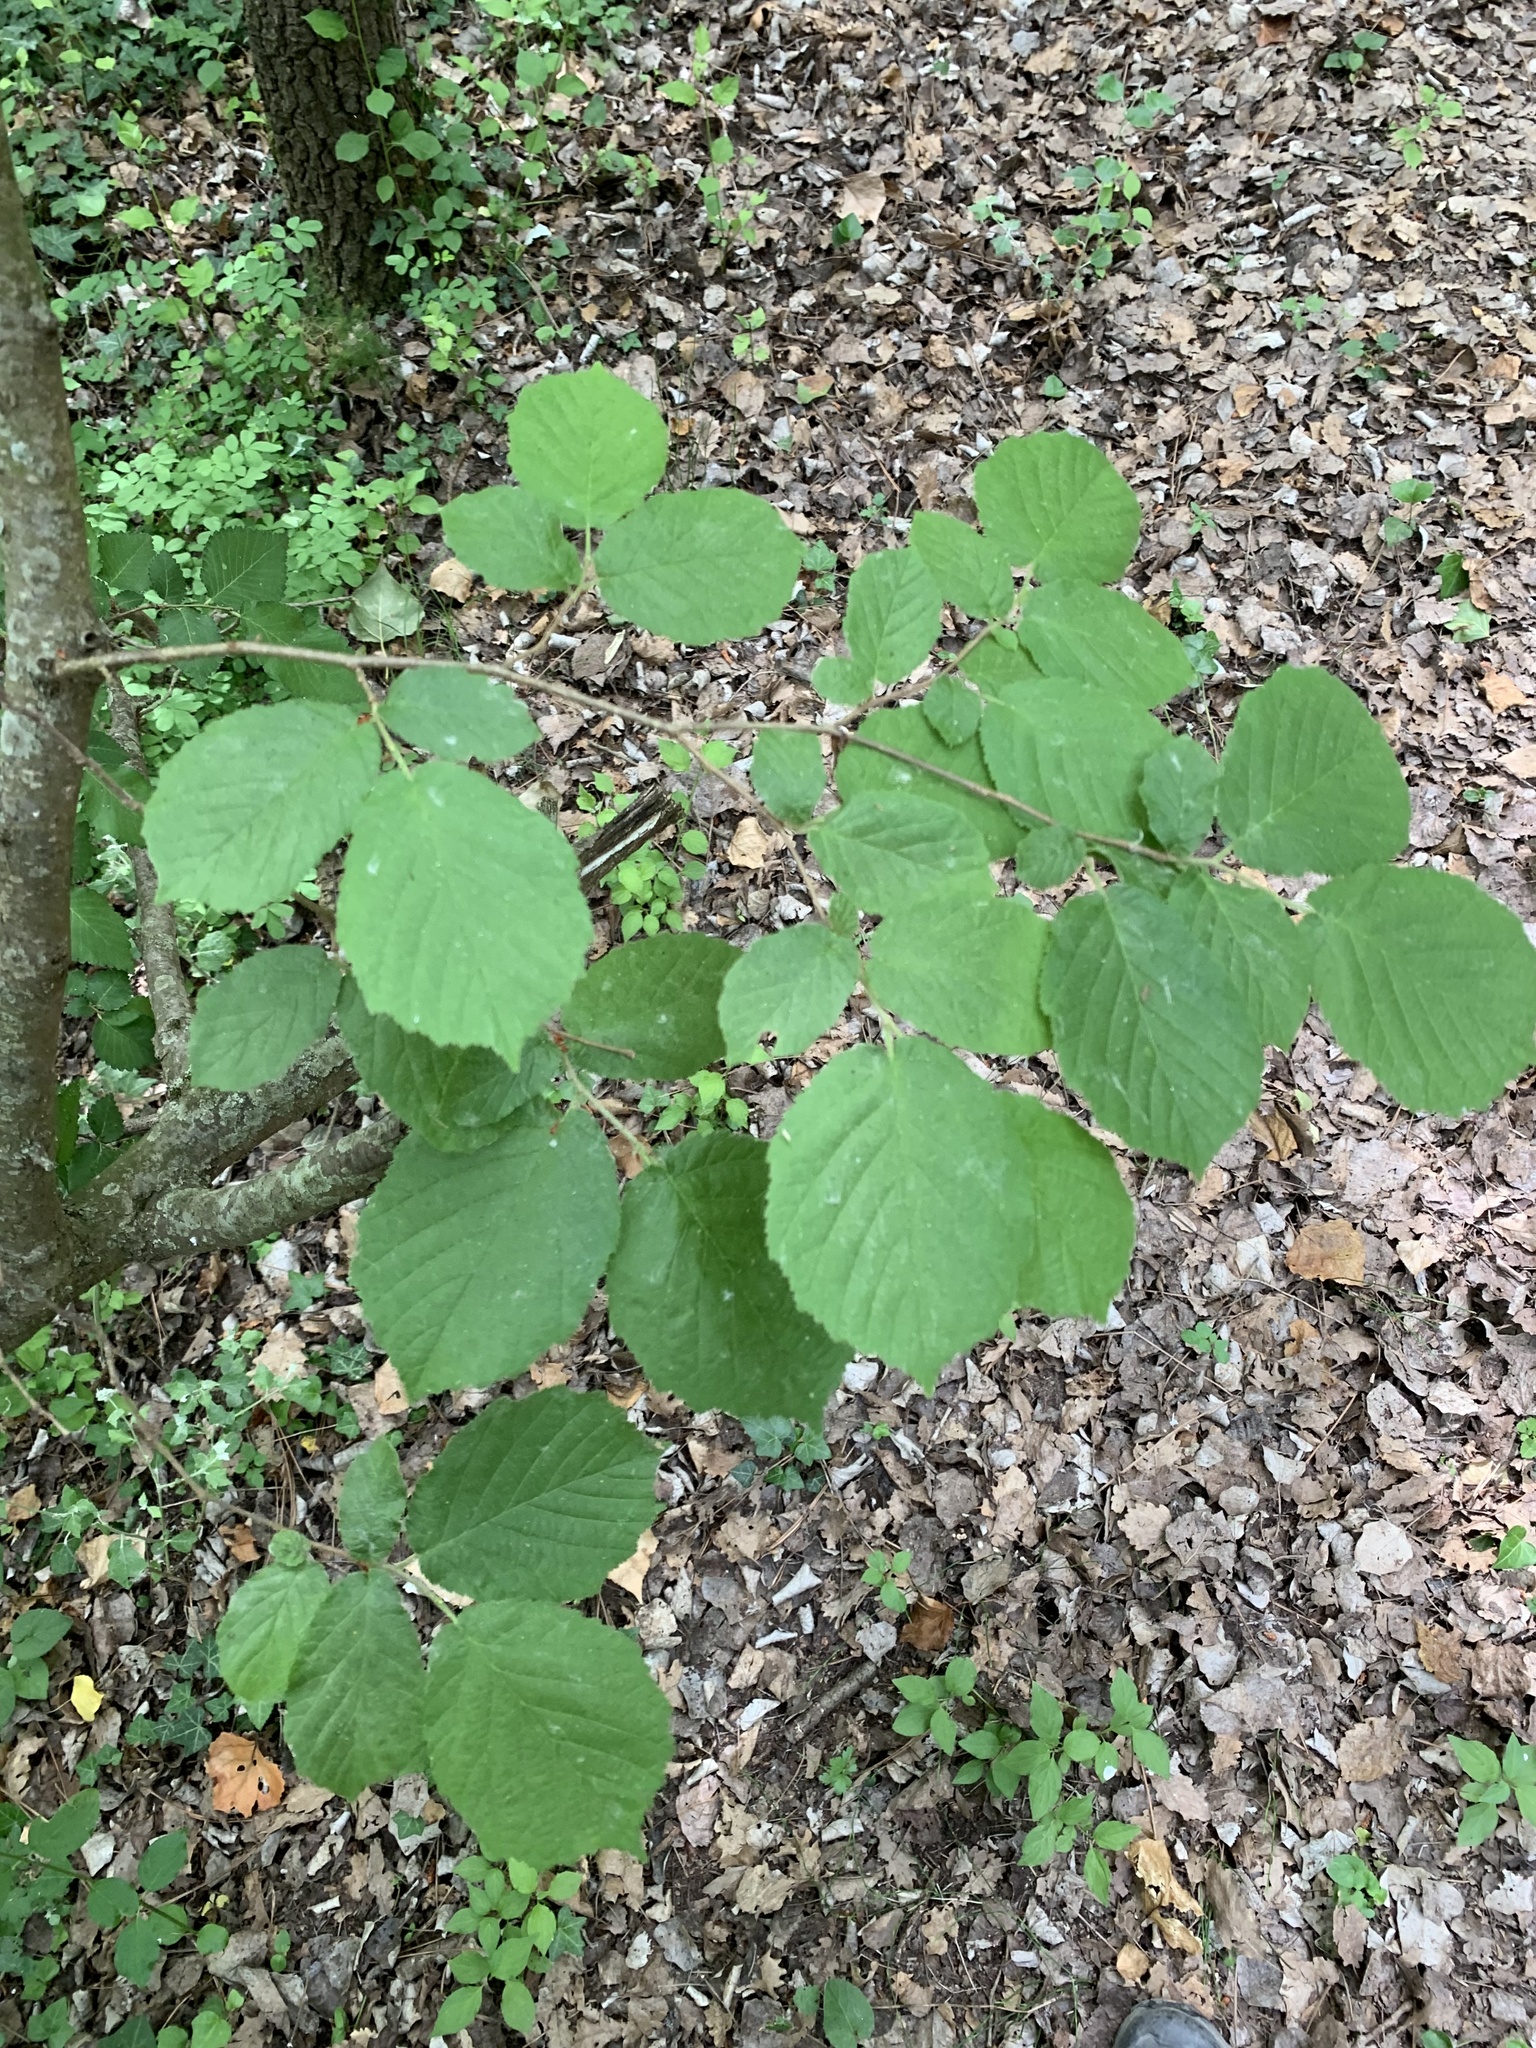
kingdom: Plantae
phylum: Tracheophyta
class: Magnoliopsida
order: Fagales
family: Betulaceae
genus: Corylus
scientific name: Corylus avellana
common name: European hazel
